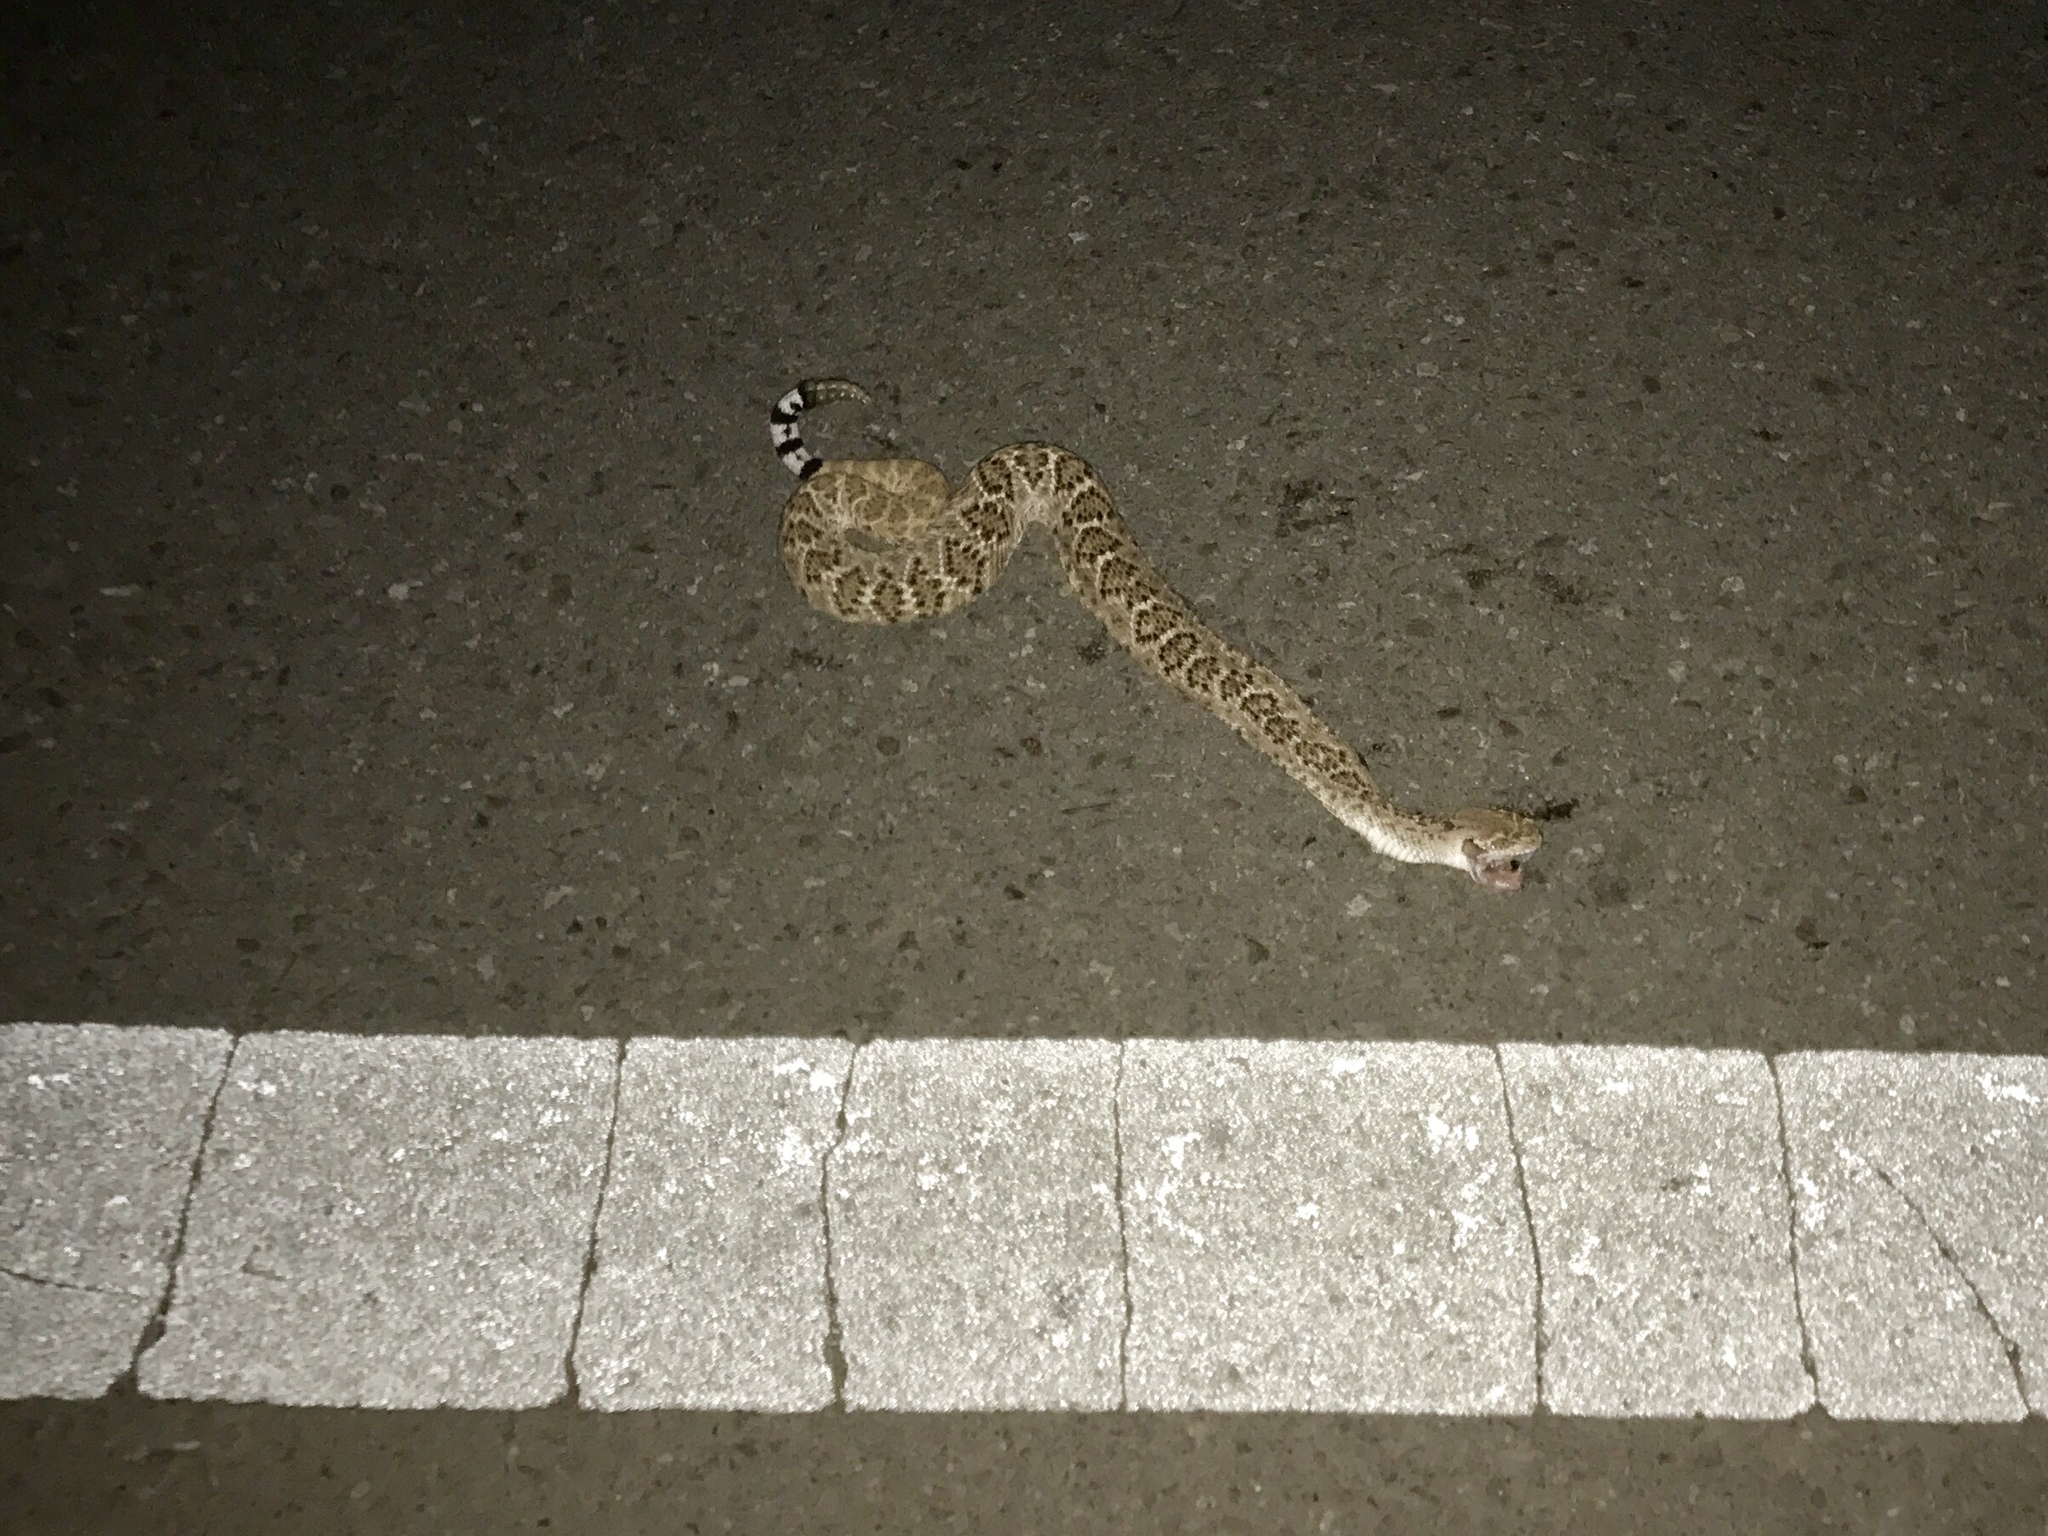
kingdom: Animalia
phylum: Chordata
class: Squamata
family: Viperidae
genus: Crotalus
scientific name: Crotalus atrox
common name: Western diamond-backed rattlesnake
